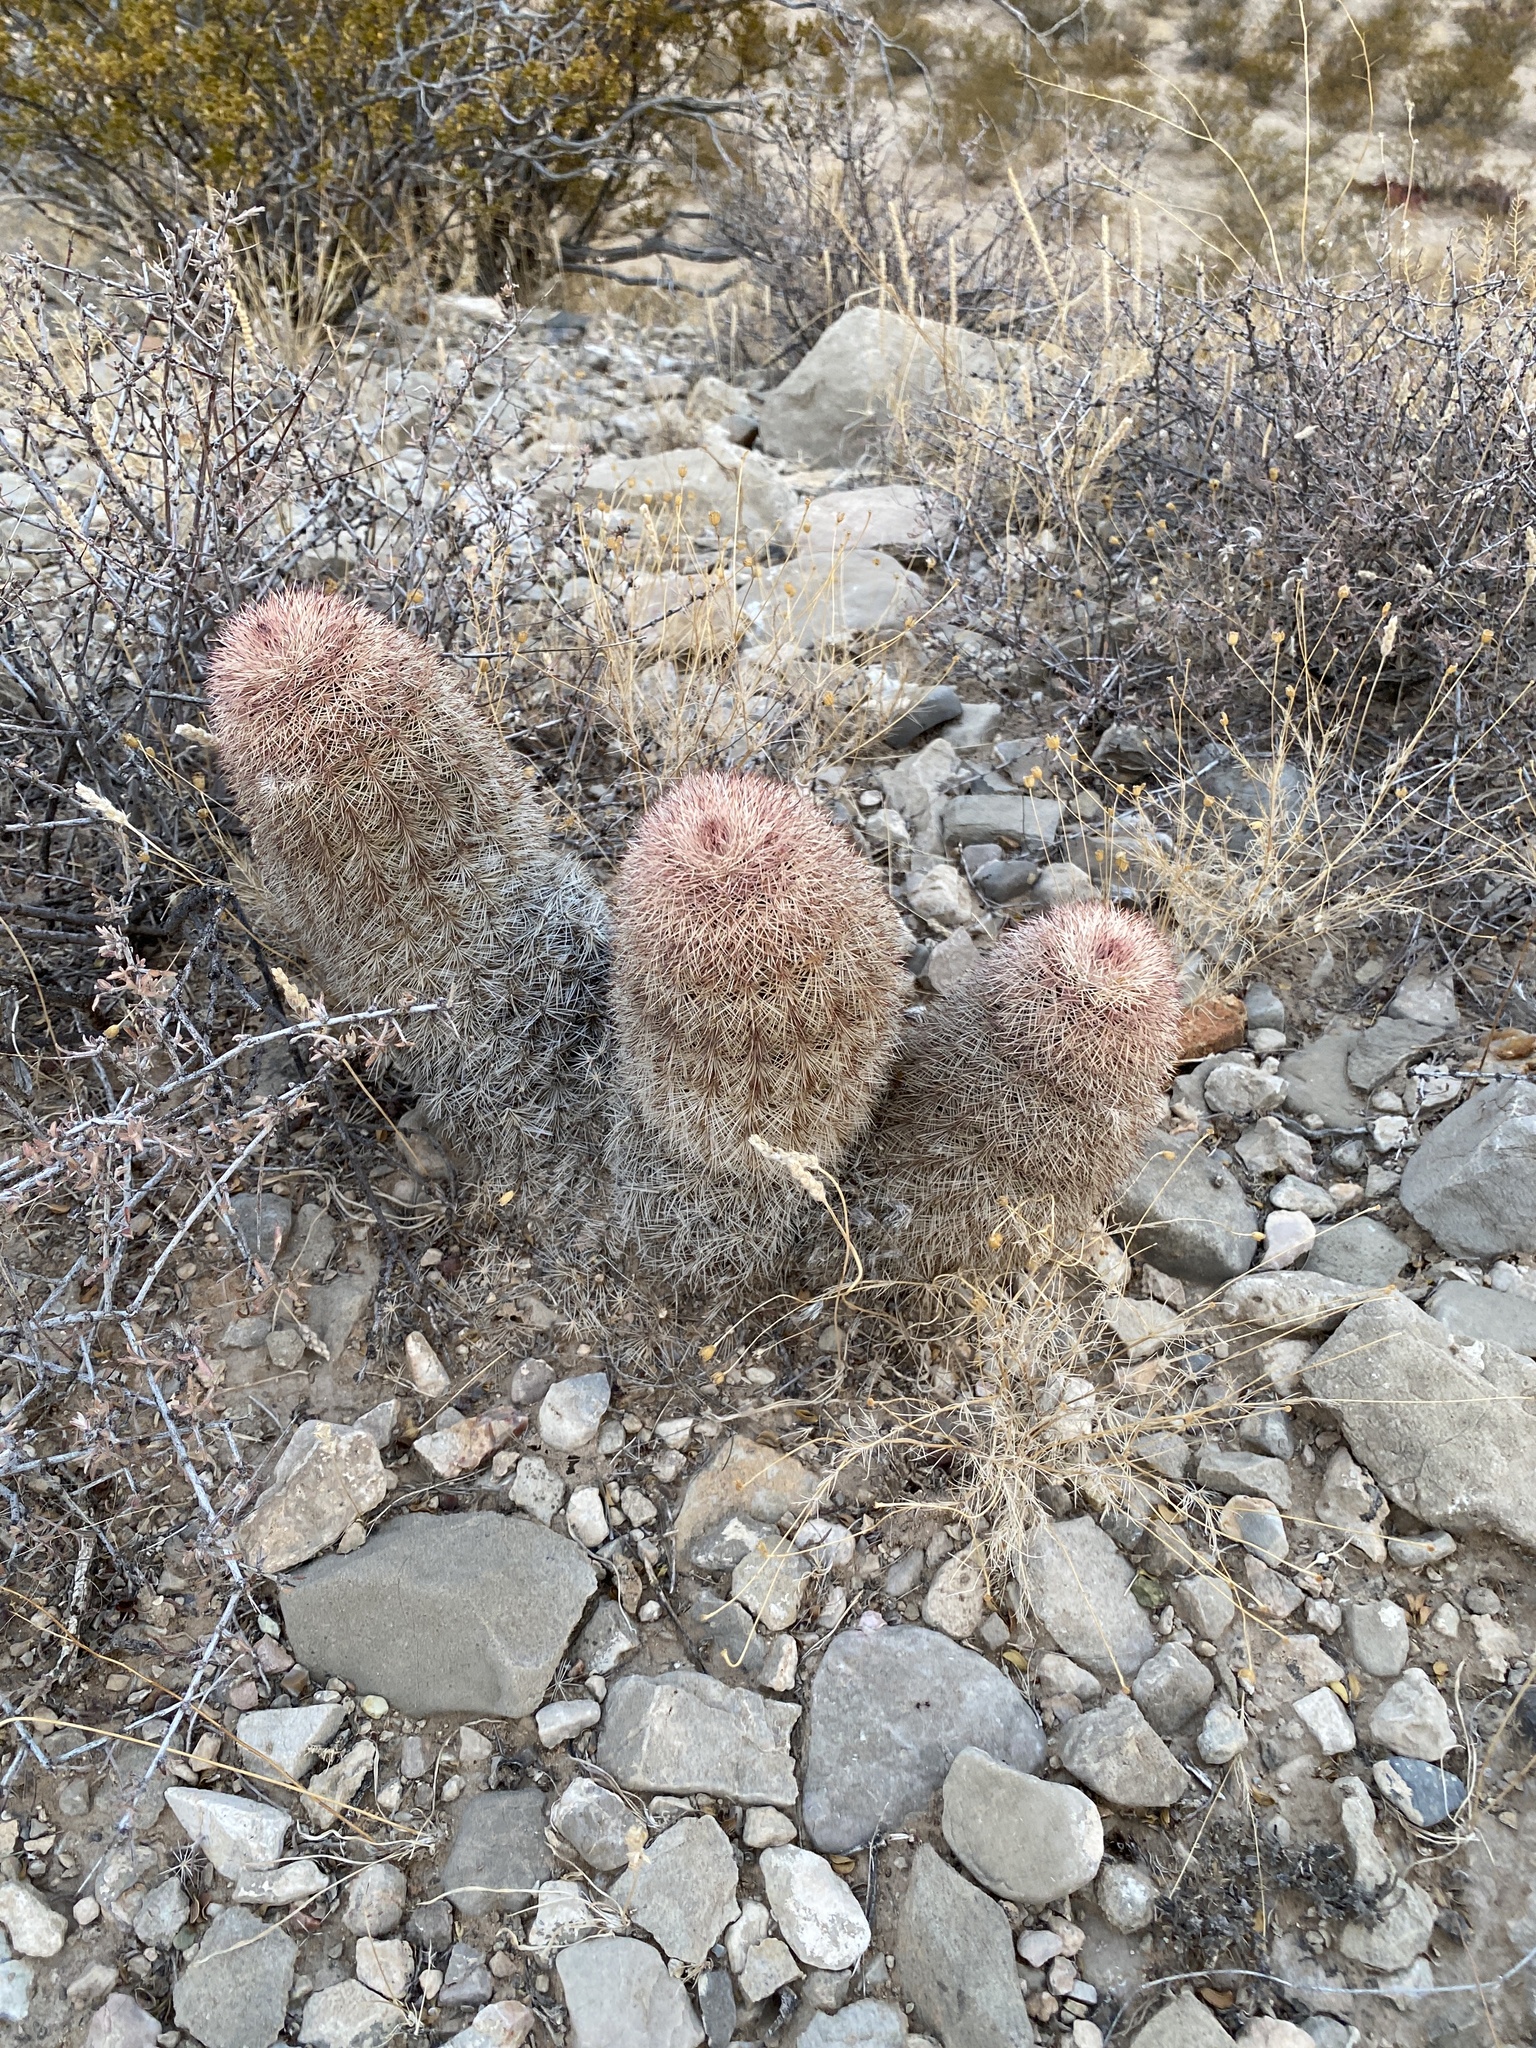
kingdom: Plantae
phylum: Tracheophyta
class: Magnoliopsida
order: Caryophyllales
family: Cactaceae
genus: Echinocereus
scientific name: Echinocereus dasyacanthus
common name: Spiny hedgehog cactus
